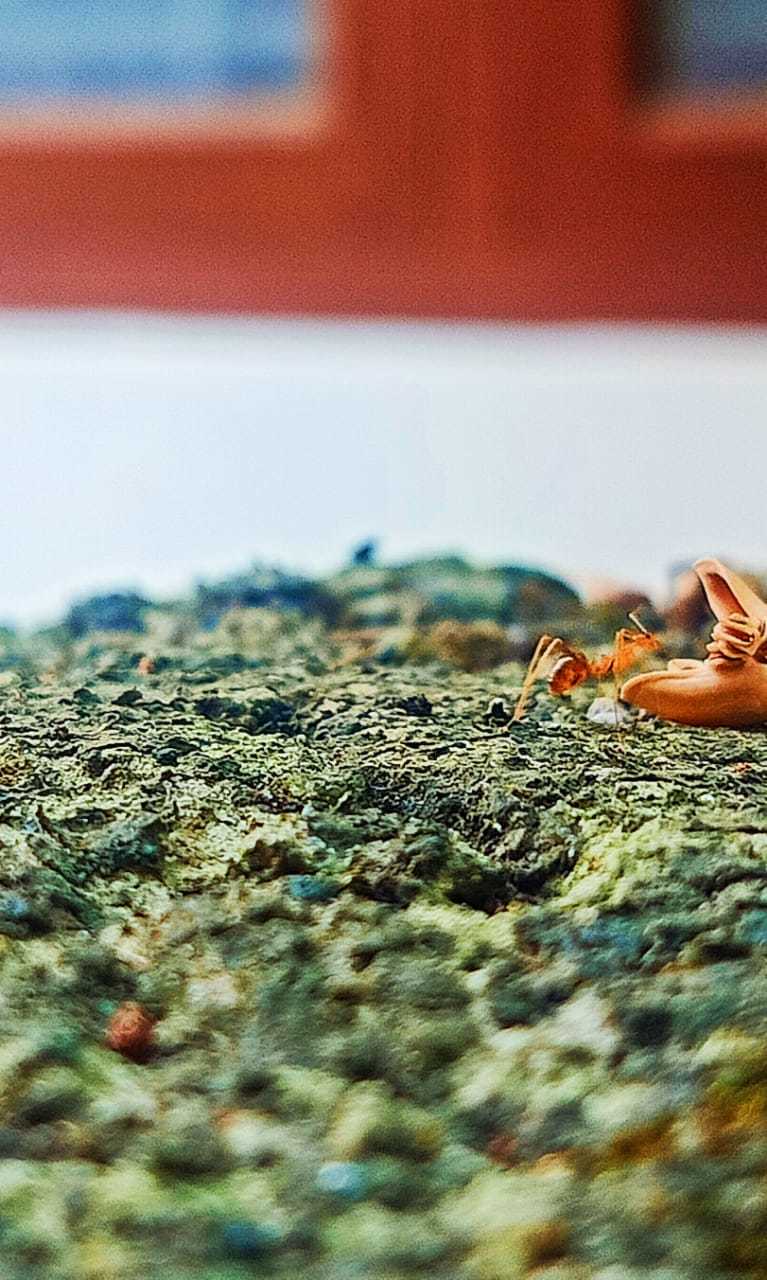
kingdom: Animalia
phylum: Arthropoda
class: Insecta
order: Hymenoptera
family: Formicidae
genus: Anoplolepis
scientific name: Anoplolepis gracilipes
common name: Ant
